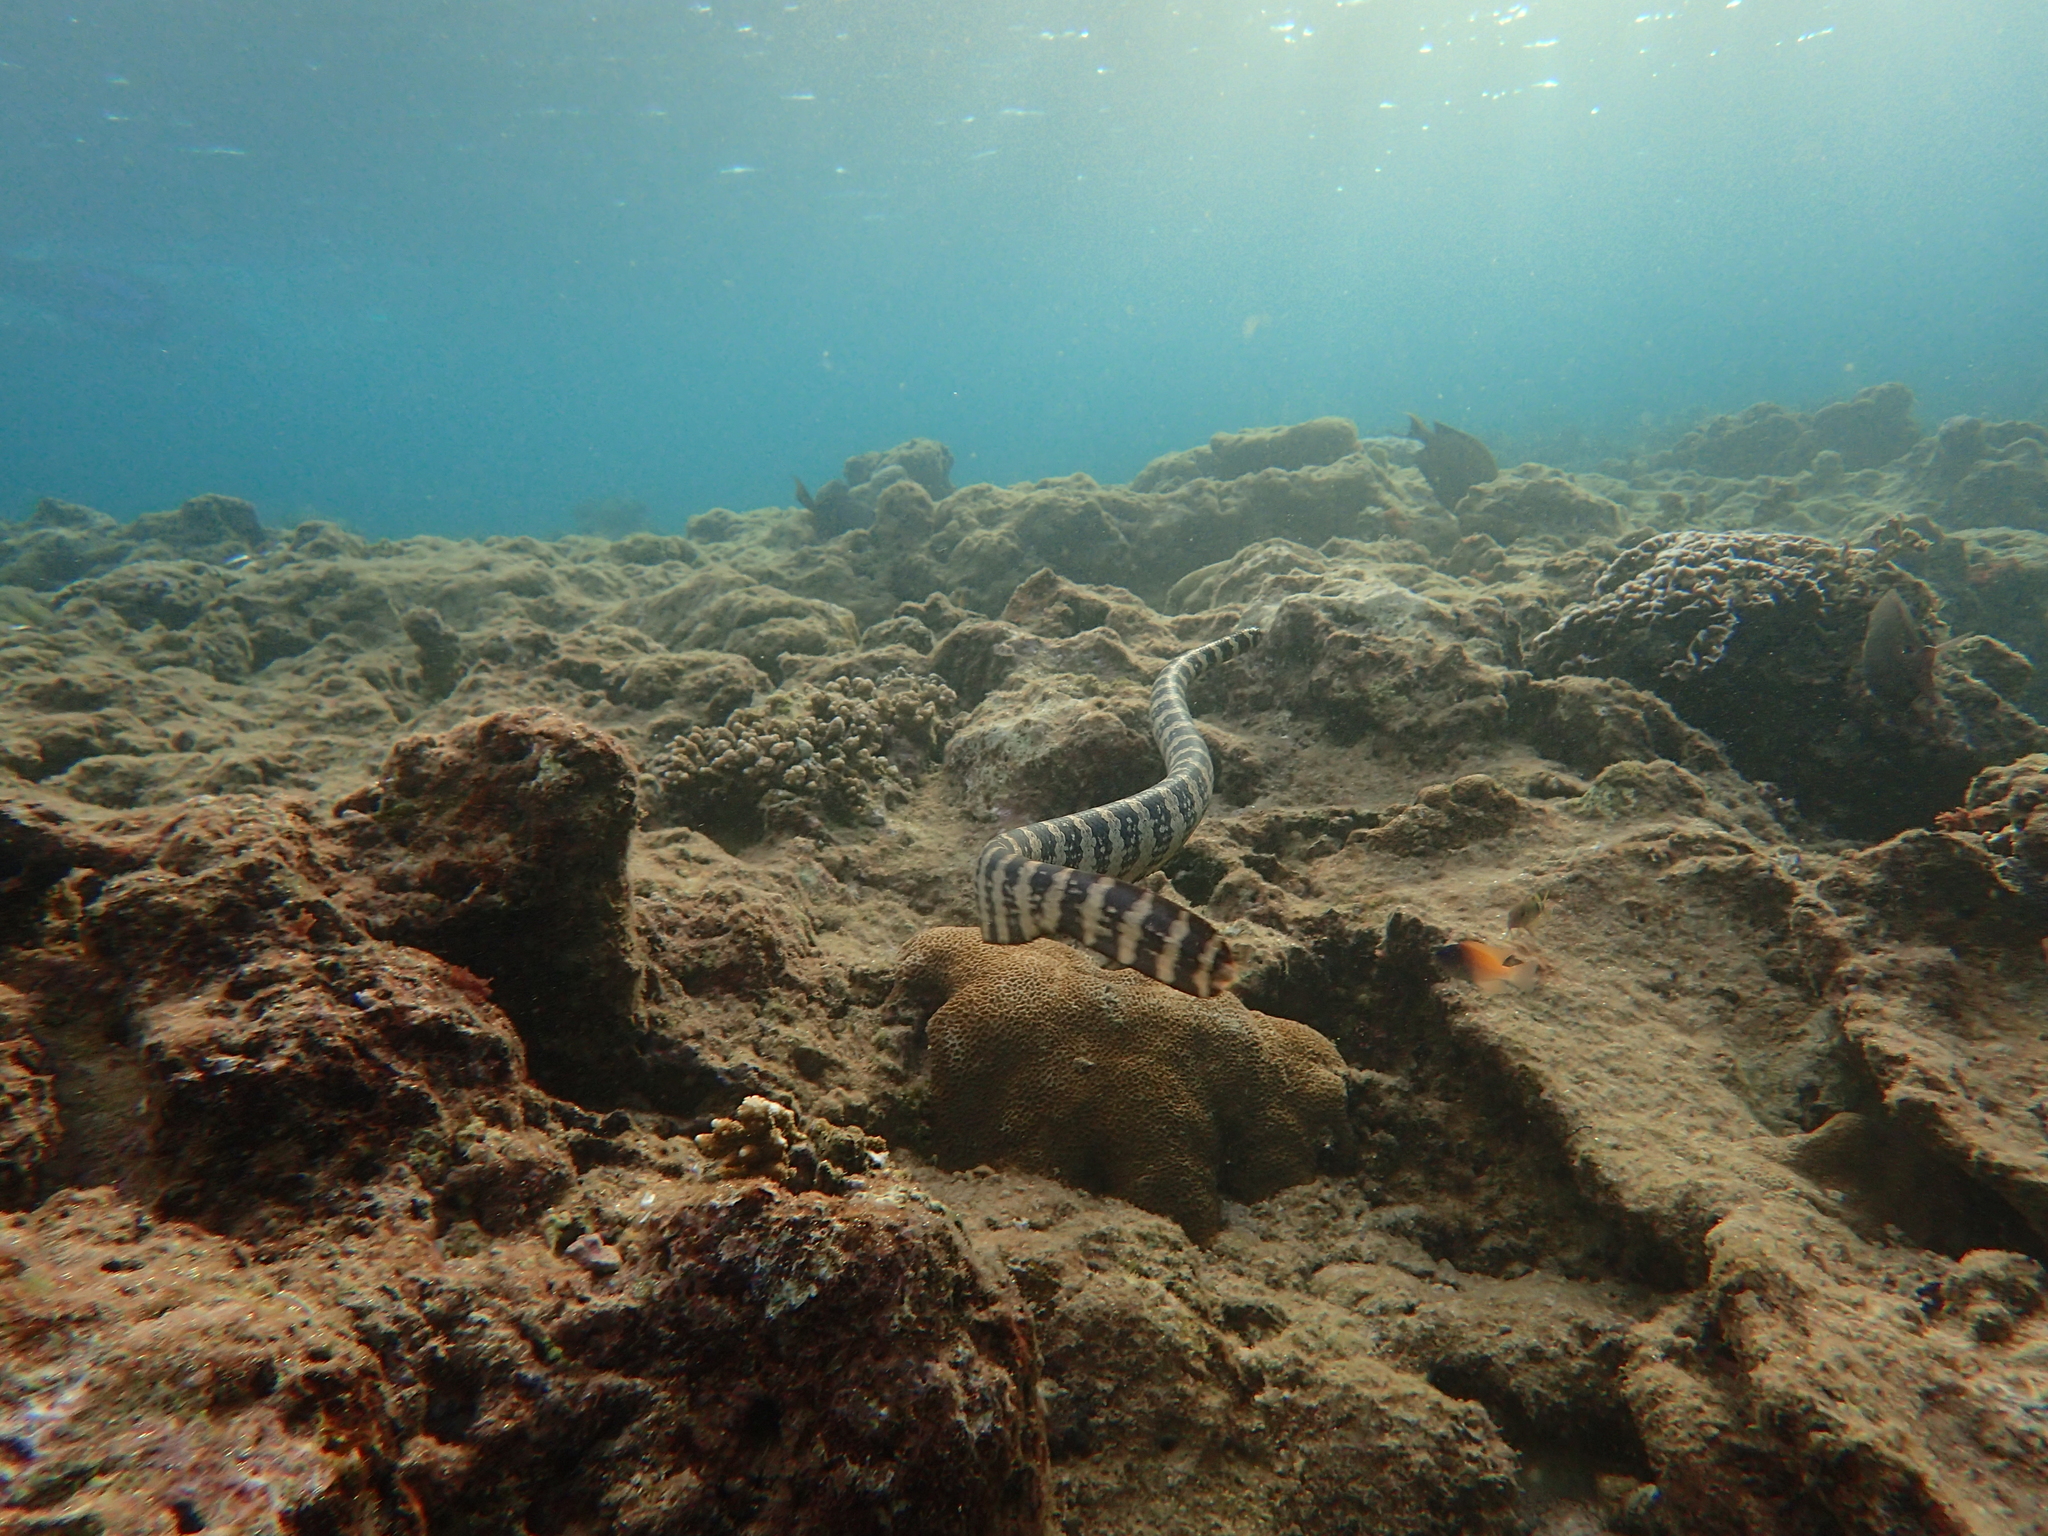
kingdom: Animalia
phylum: Chordata
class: Squamata
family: Elapidae
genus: Emydocephalus
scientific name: Emydocephalus ijimae
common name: Turtlehead sea snake
